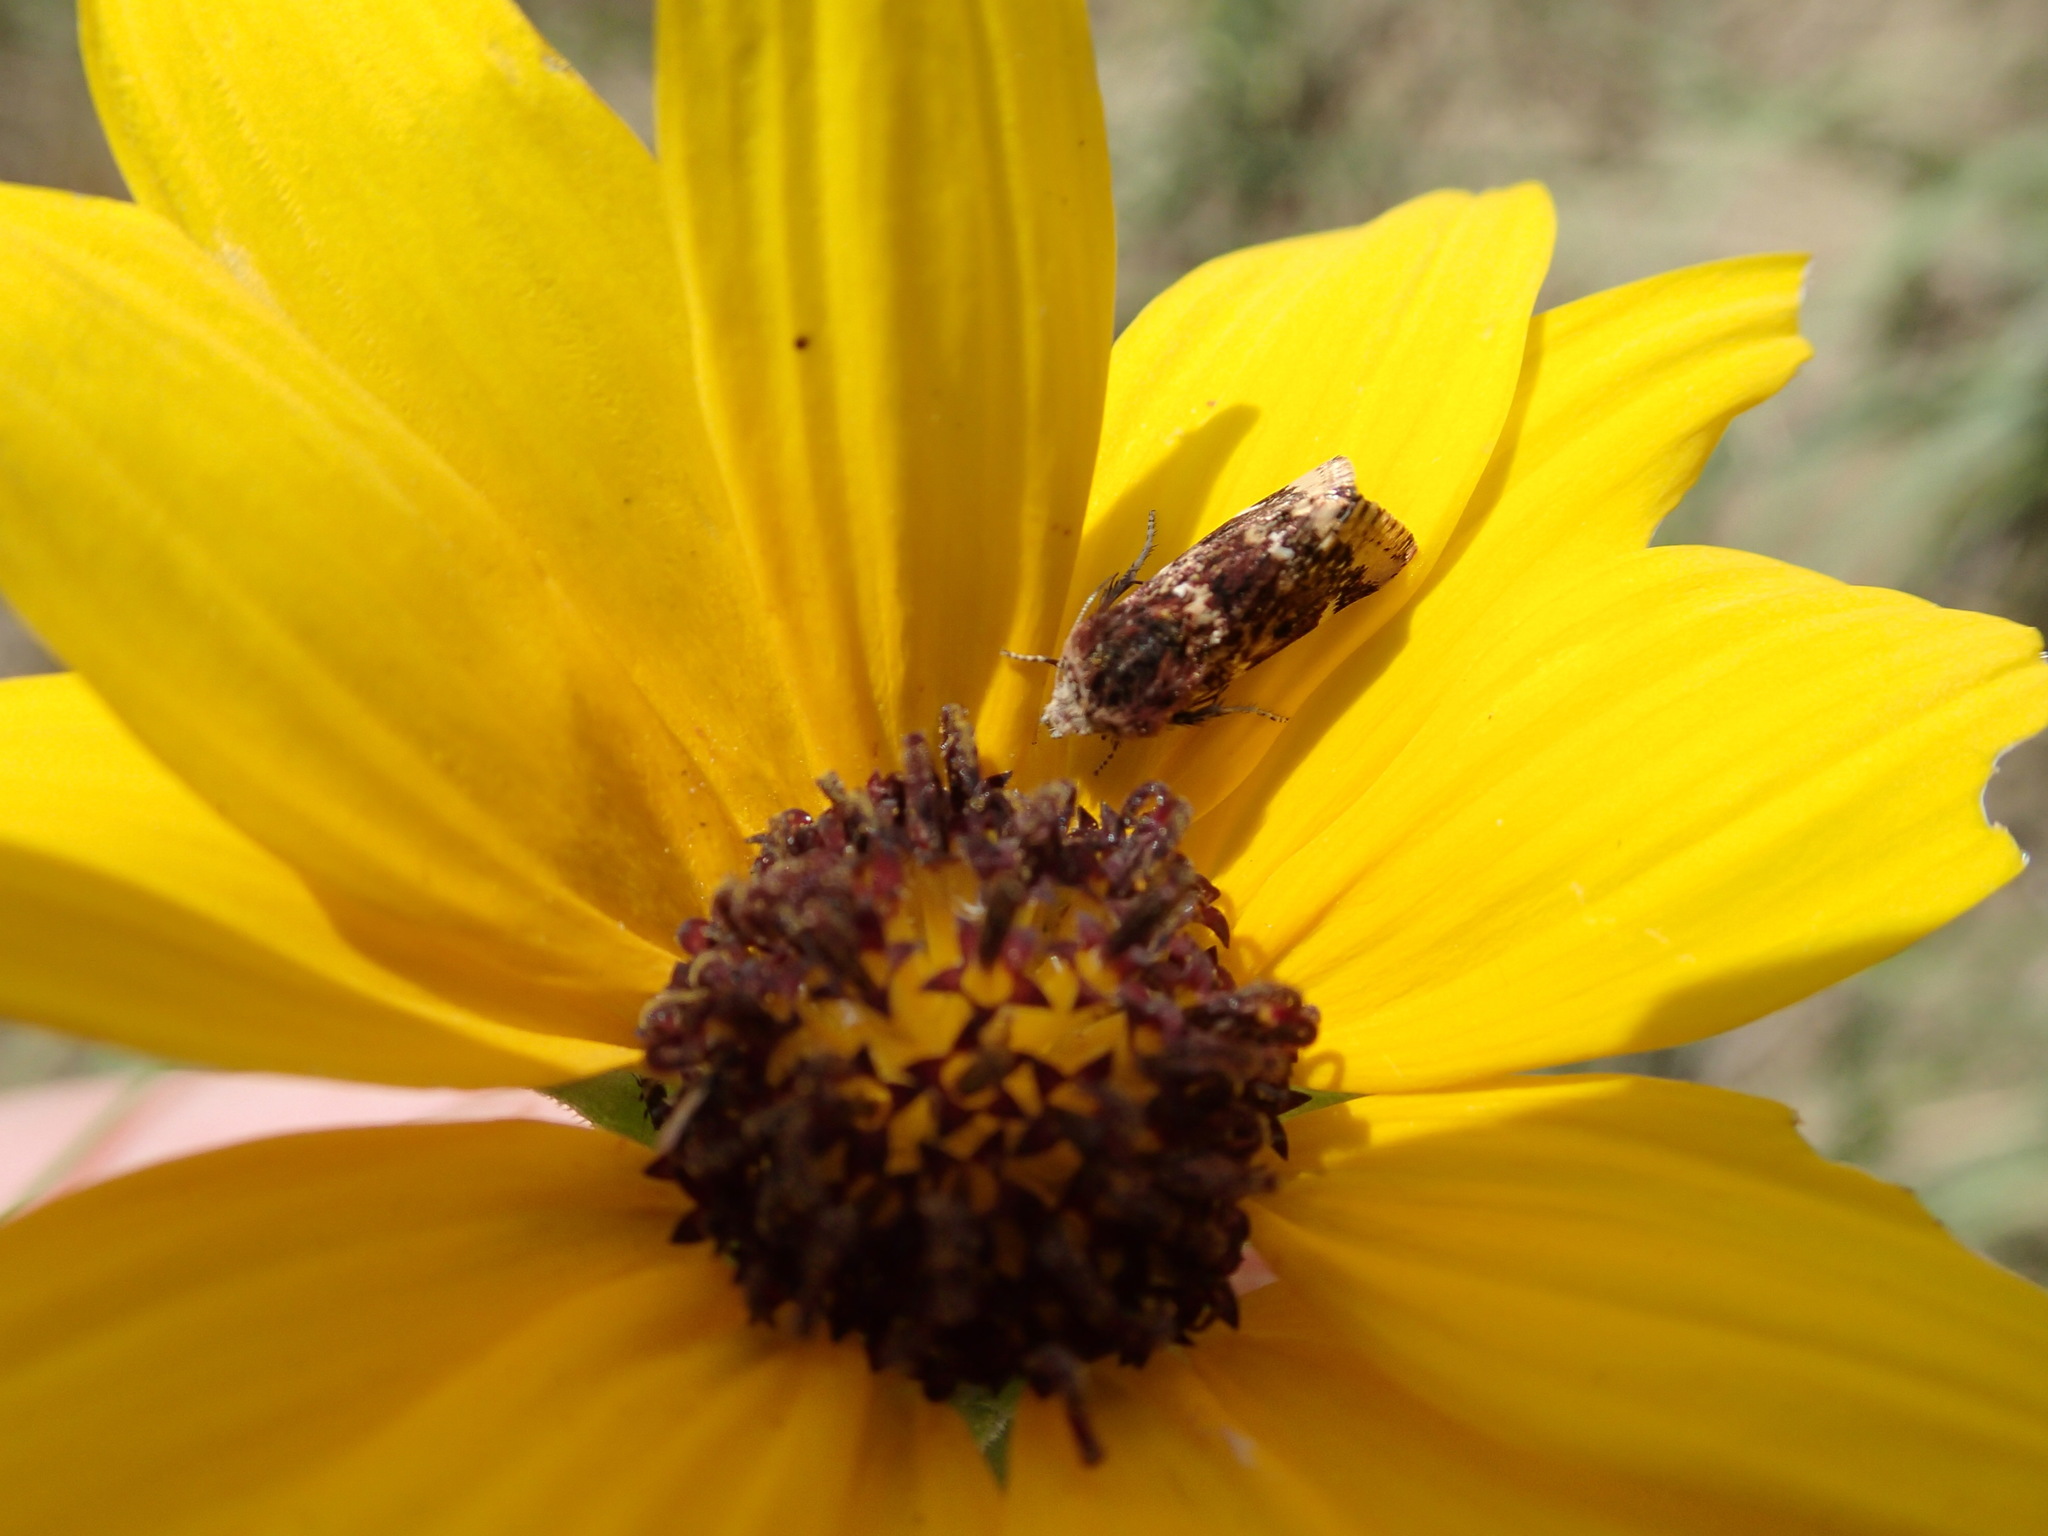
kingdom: Animalia
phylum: Arthropoda
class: Insecta
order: Lepidoptera
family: Noctuidae
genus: Schinia
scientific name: Schinia avemensis
